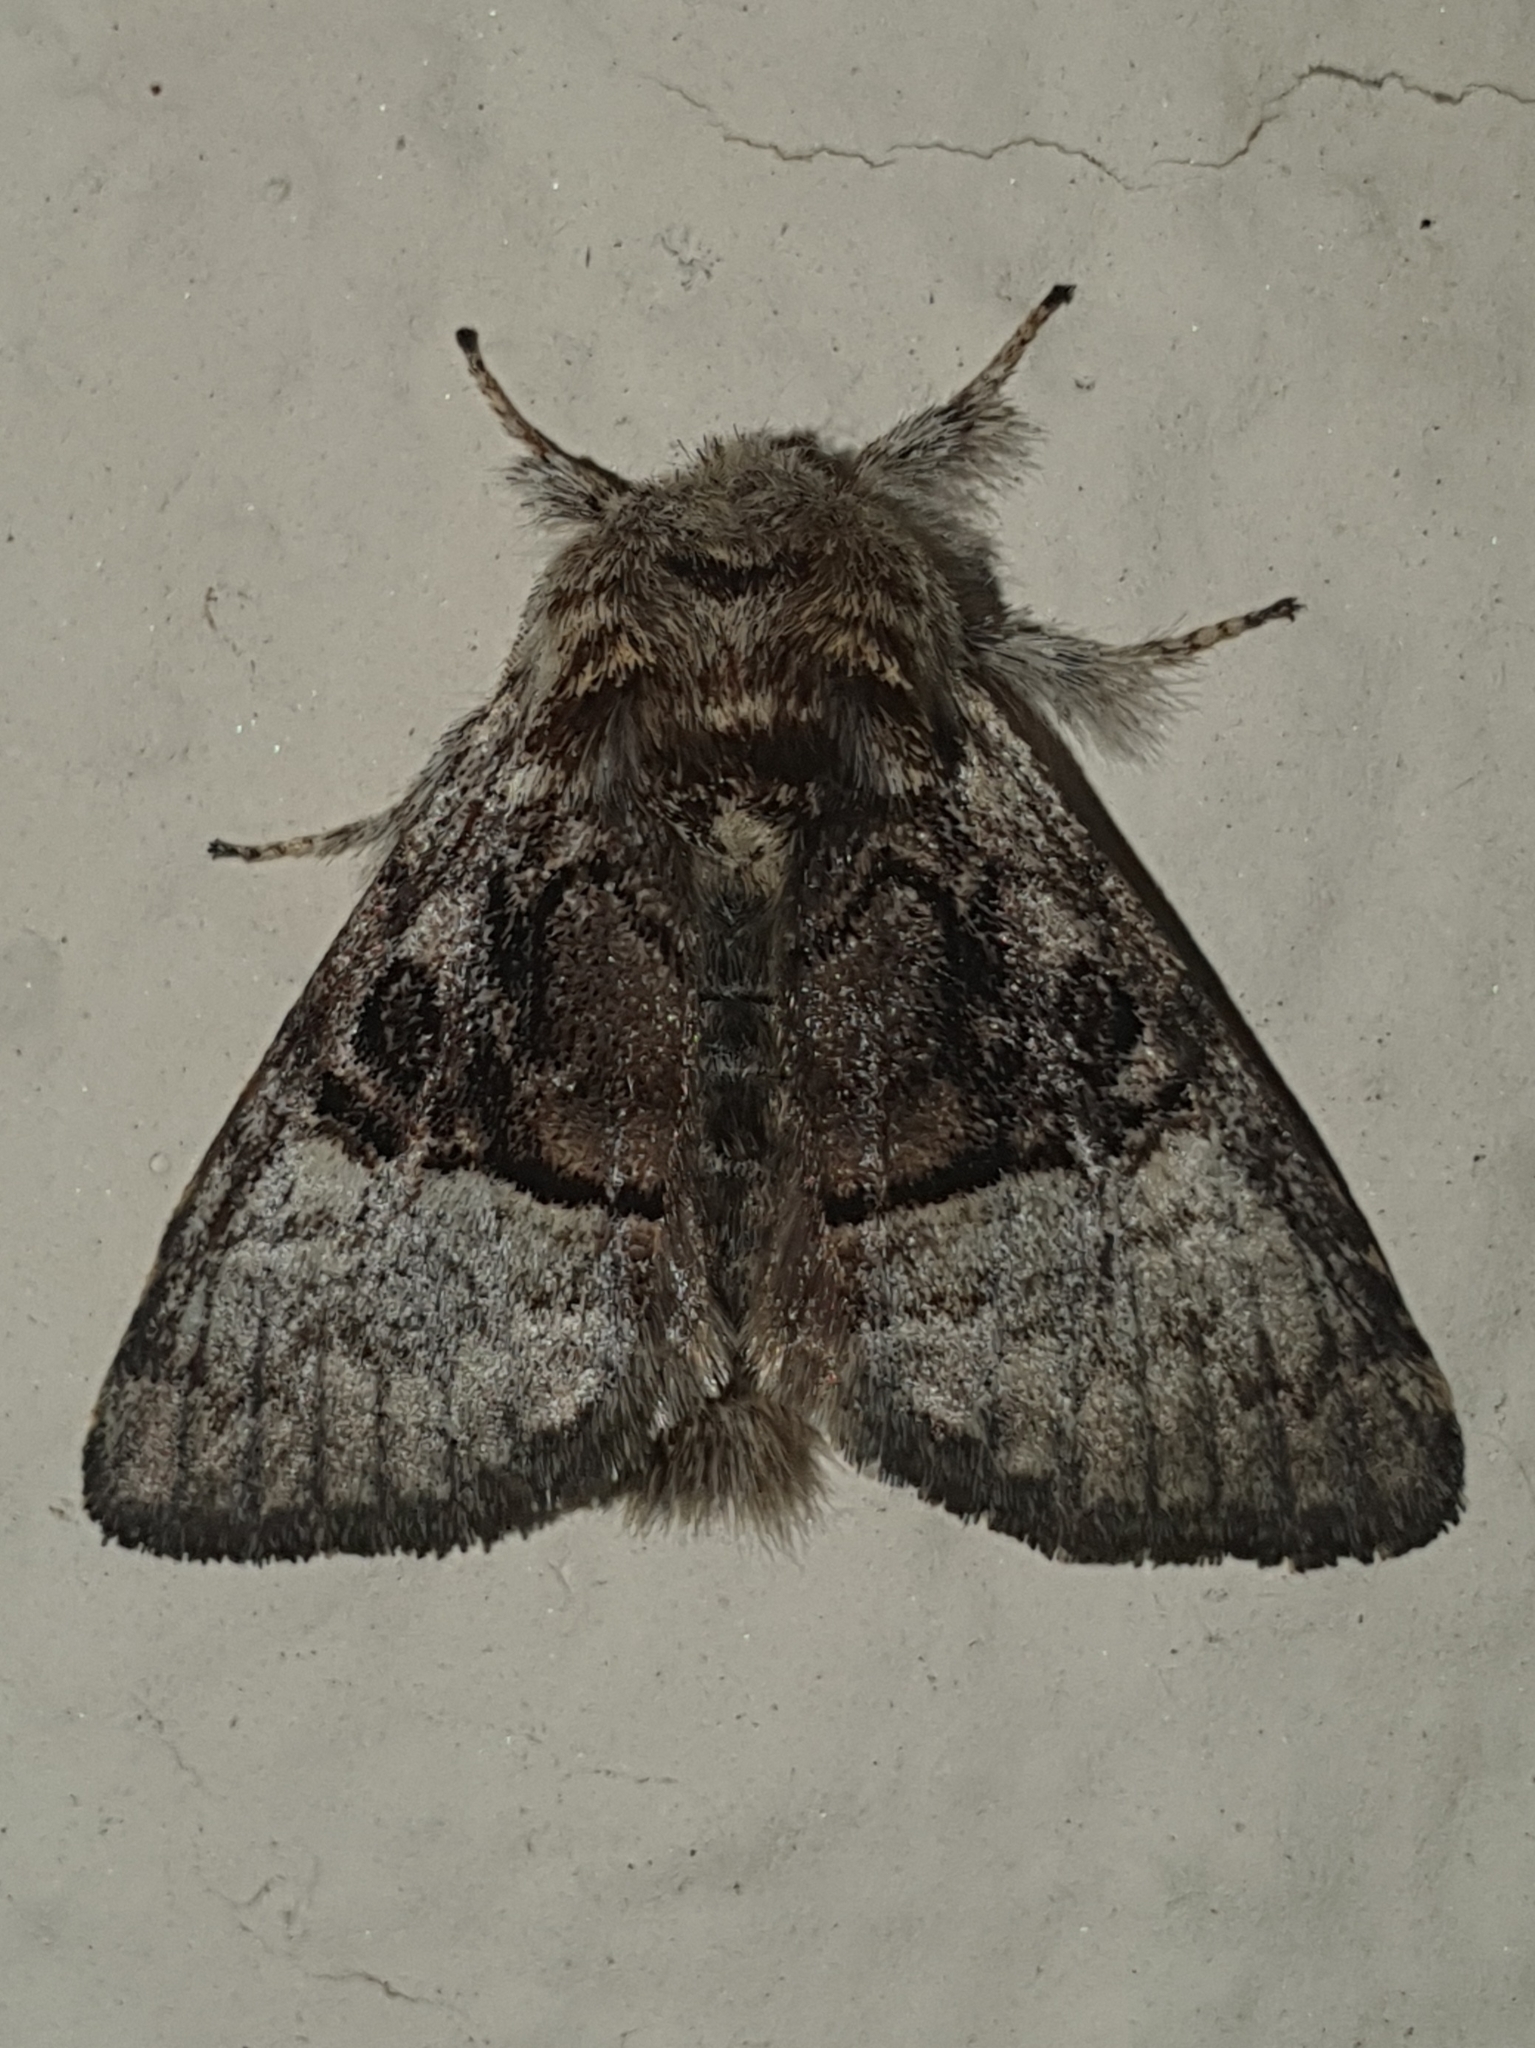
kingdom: Animalia
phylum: Arthropoda
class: Insecta
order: Lepidoptera
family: Noctuidae
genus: Colocasia
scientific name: Colocasia coryli
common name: Nut-tree tussock
